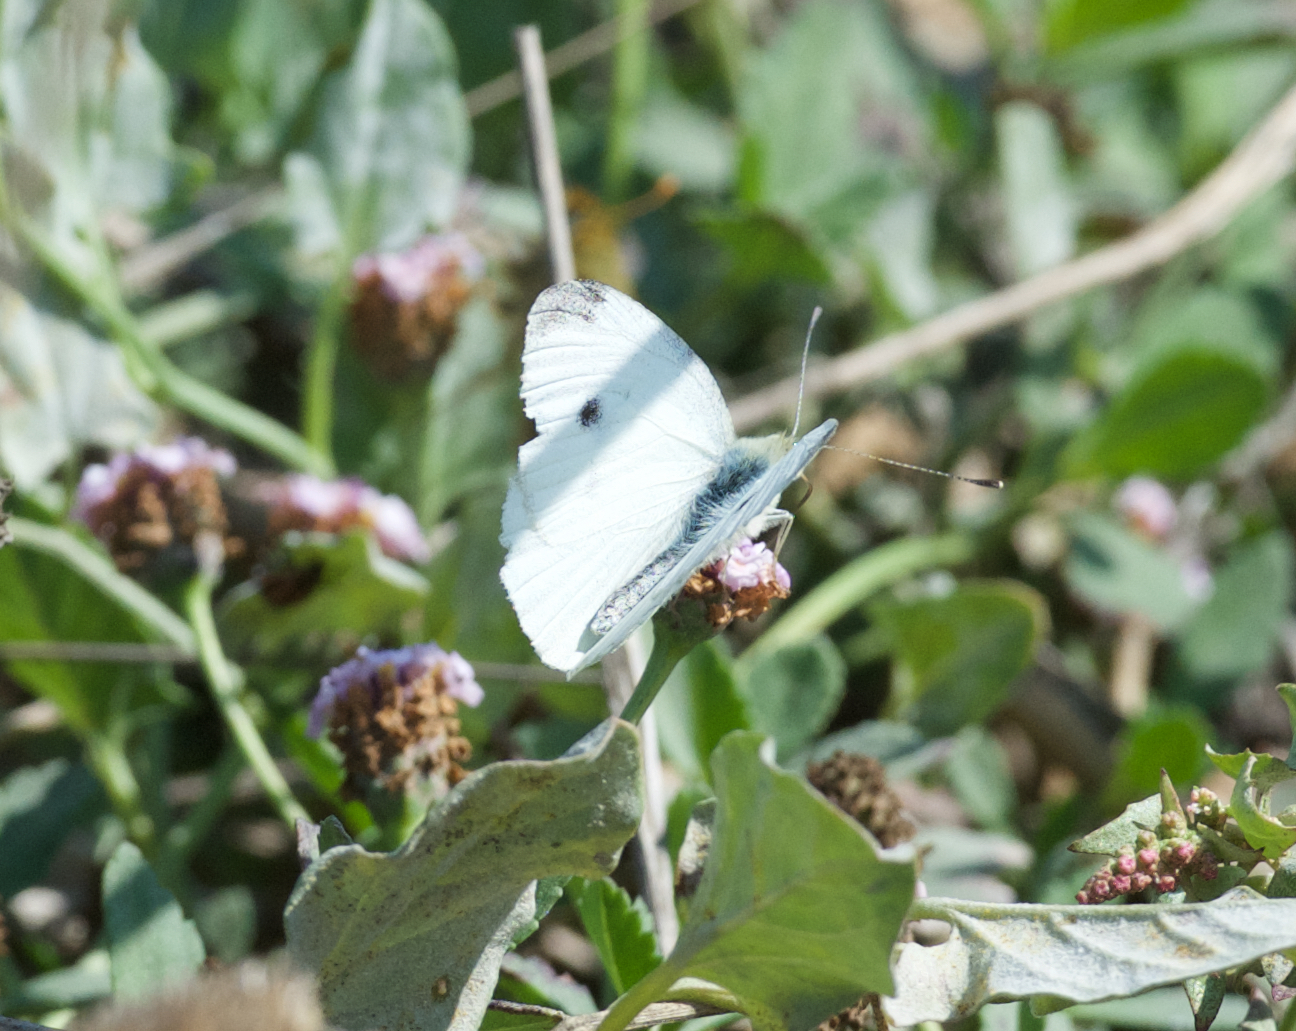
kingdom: Animalia
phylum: Arthropoda
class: Insecta
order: Lepidoptera
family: Pieridae
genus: Pieris
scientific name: Pieris rapae
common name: Small white
